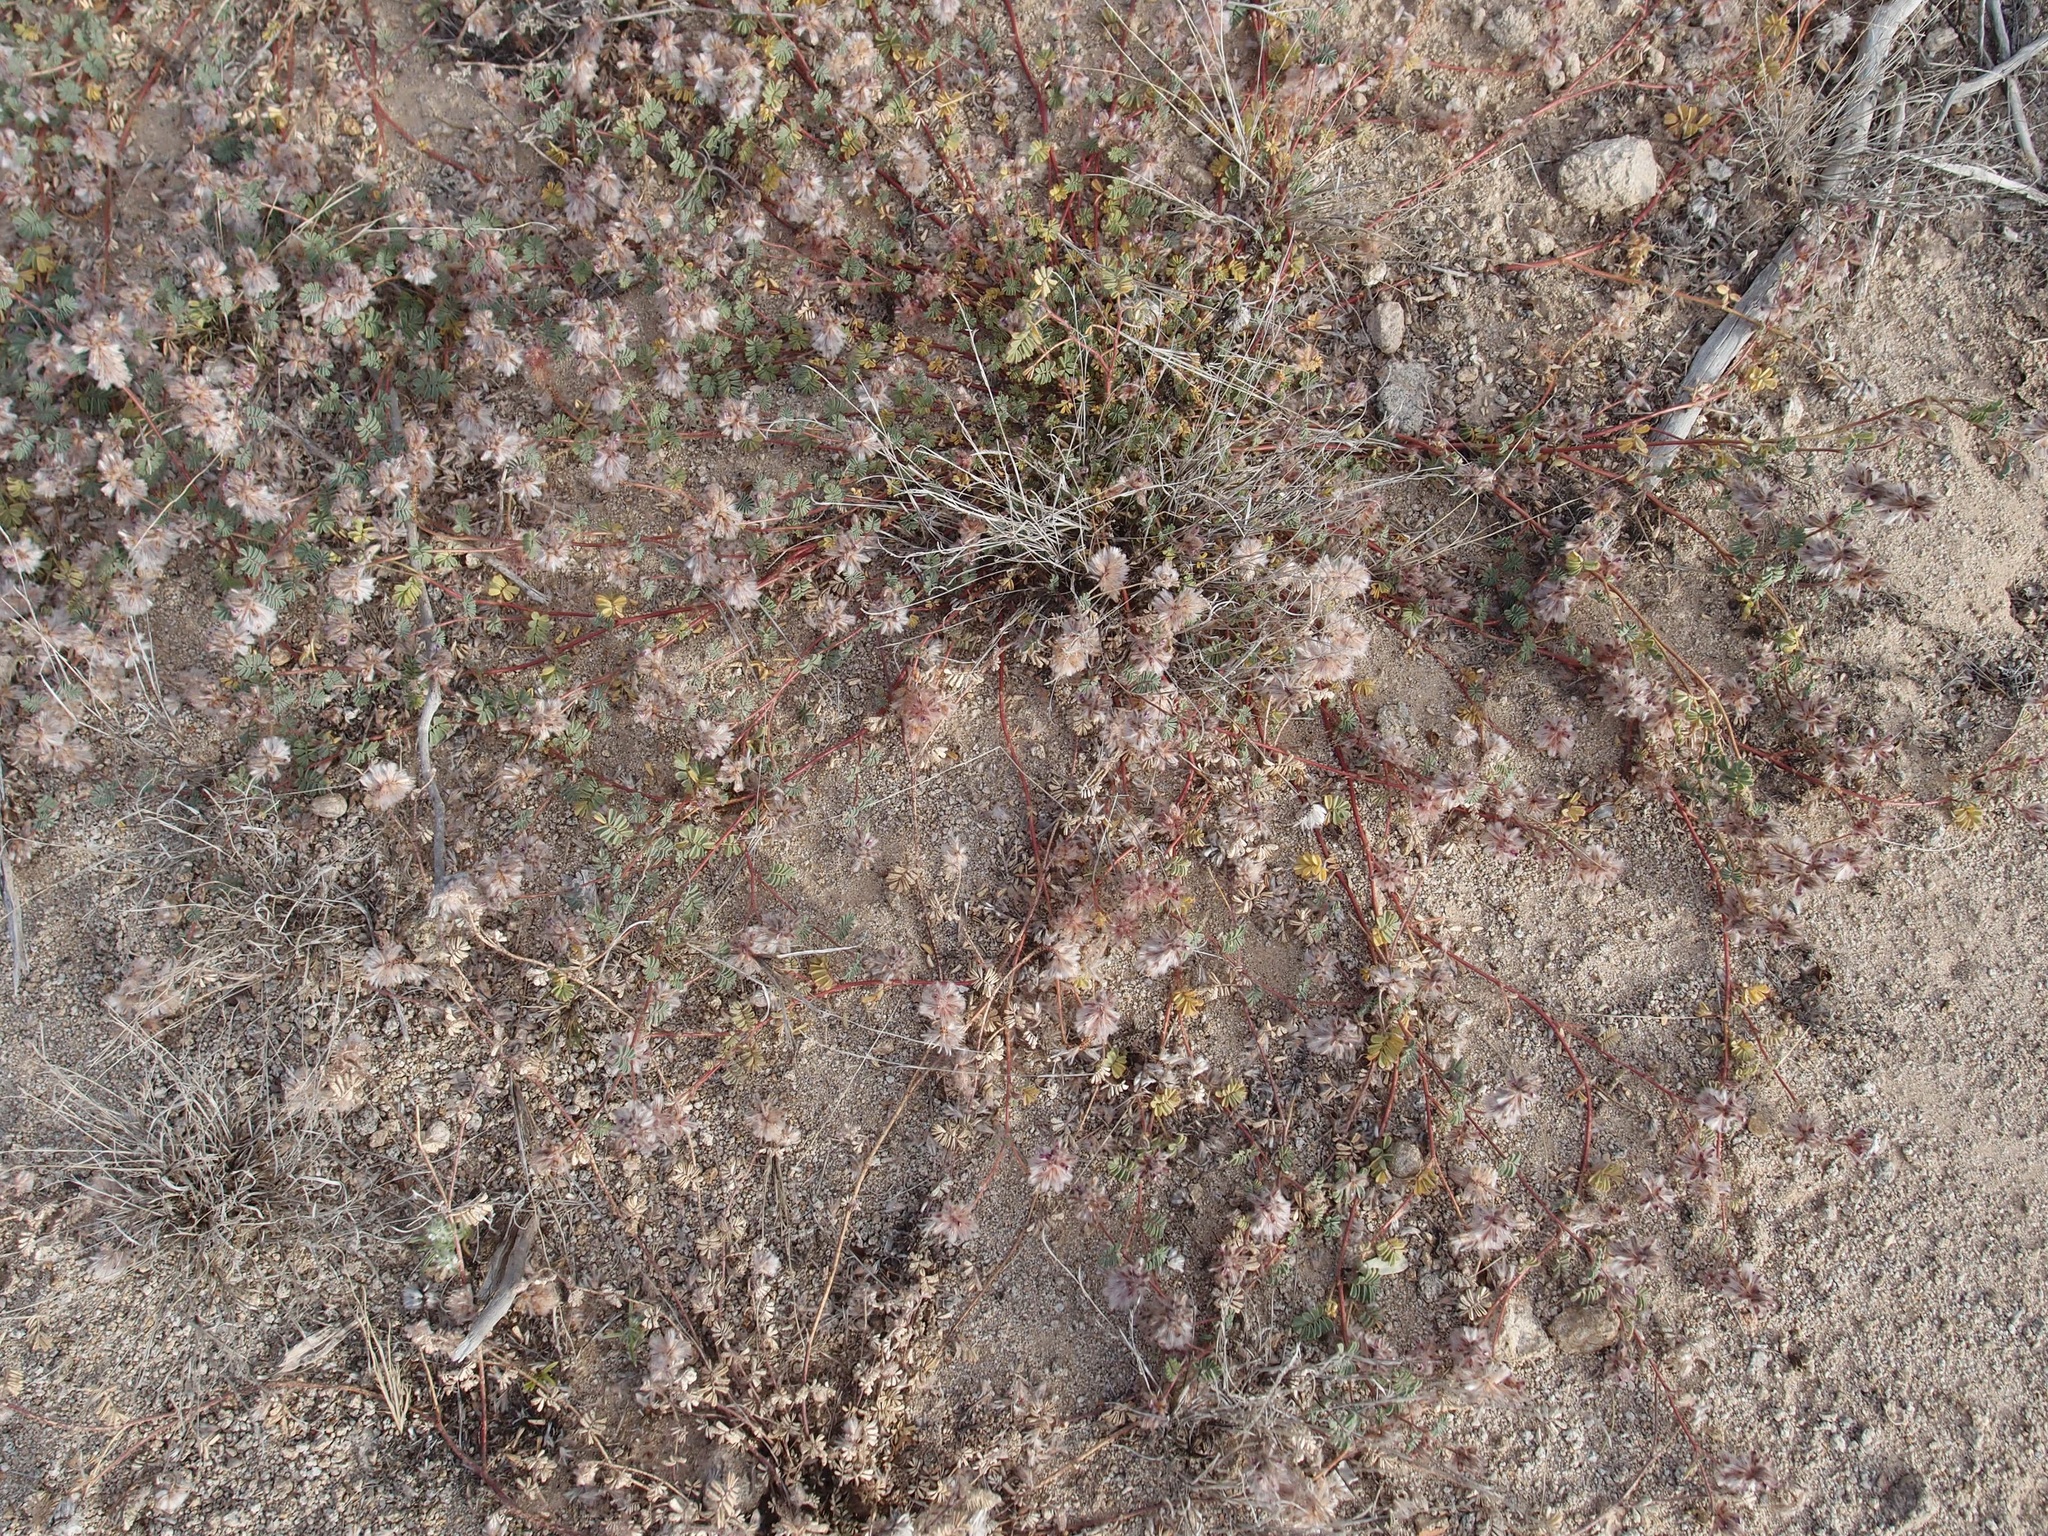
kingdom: Plantae
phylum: Tracheophyta
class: Magnoliopsida
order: Fabales
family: Fabaceae
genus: Dalea
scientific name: Dalea mollis
